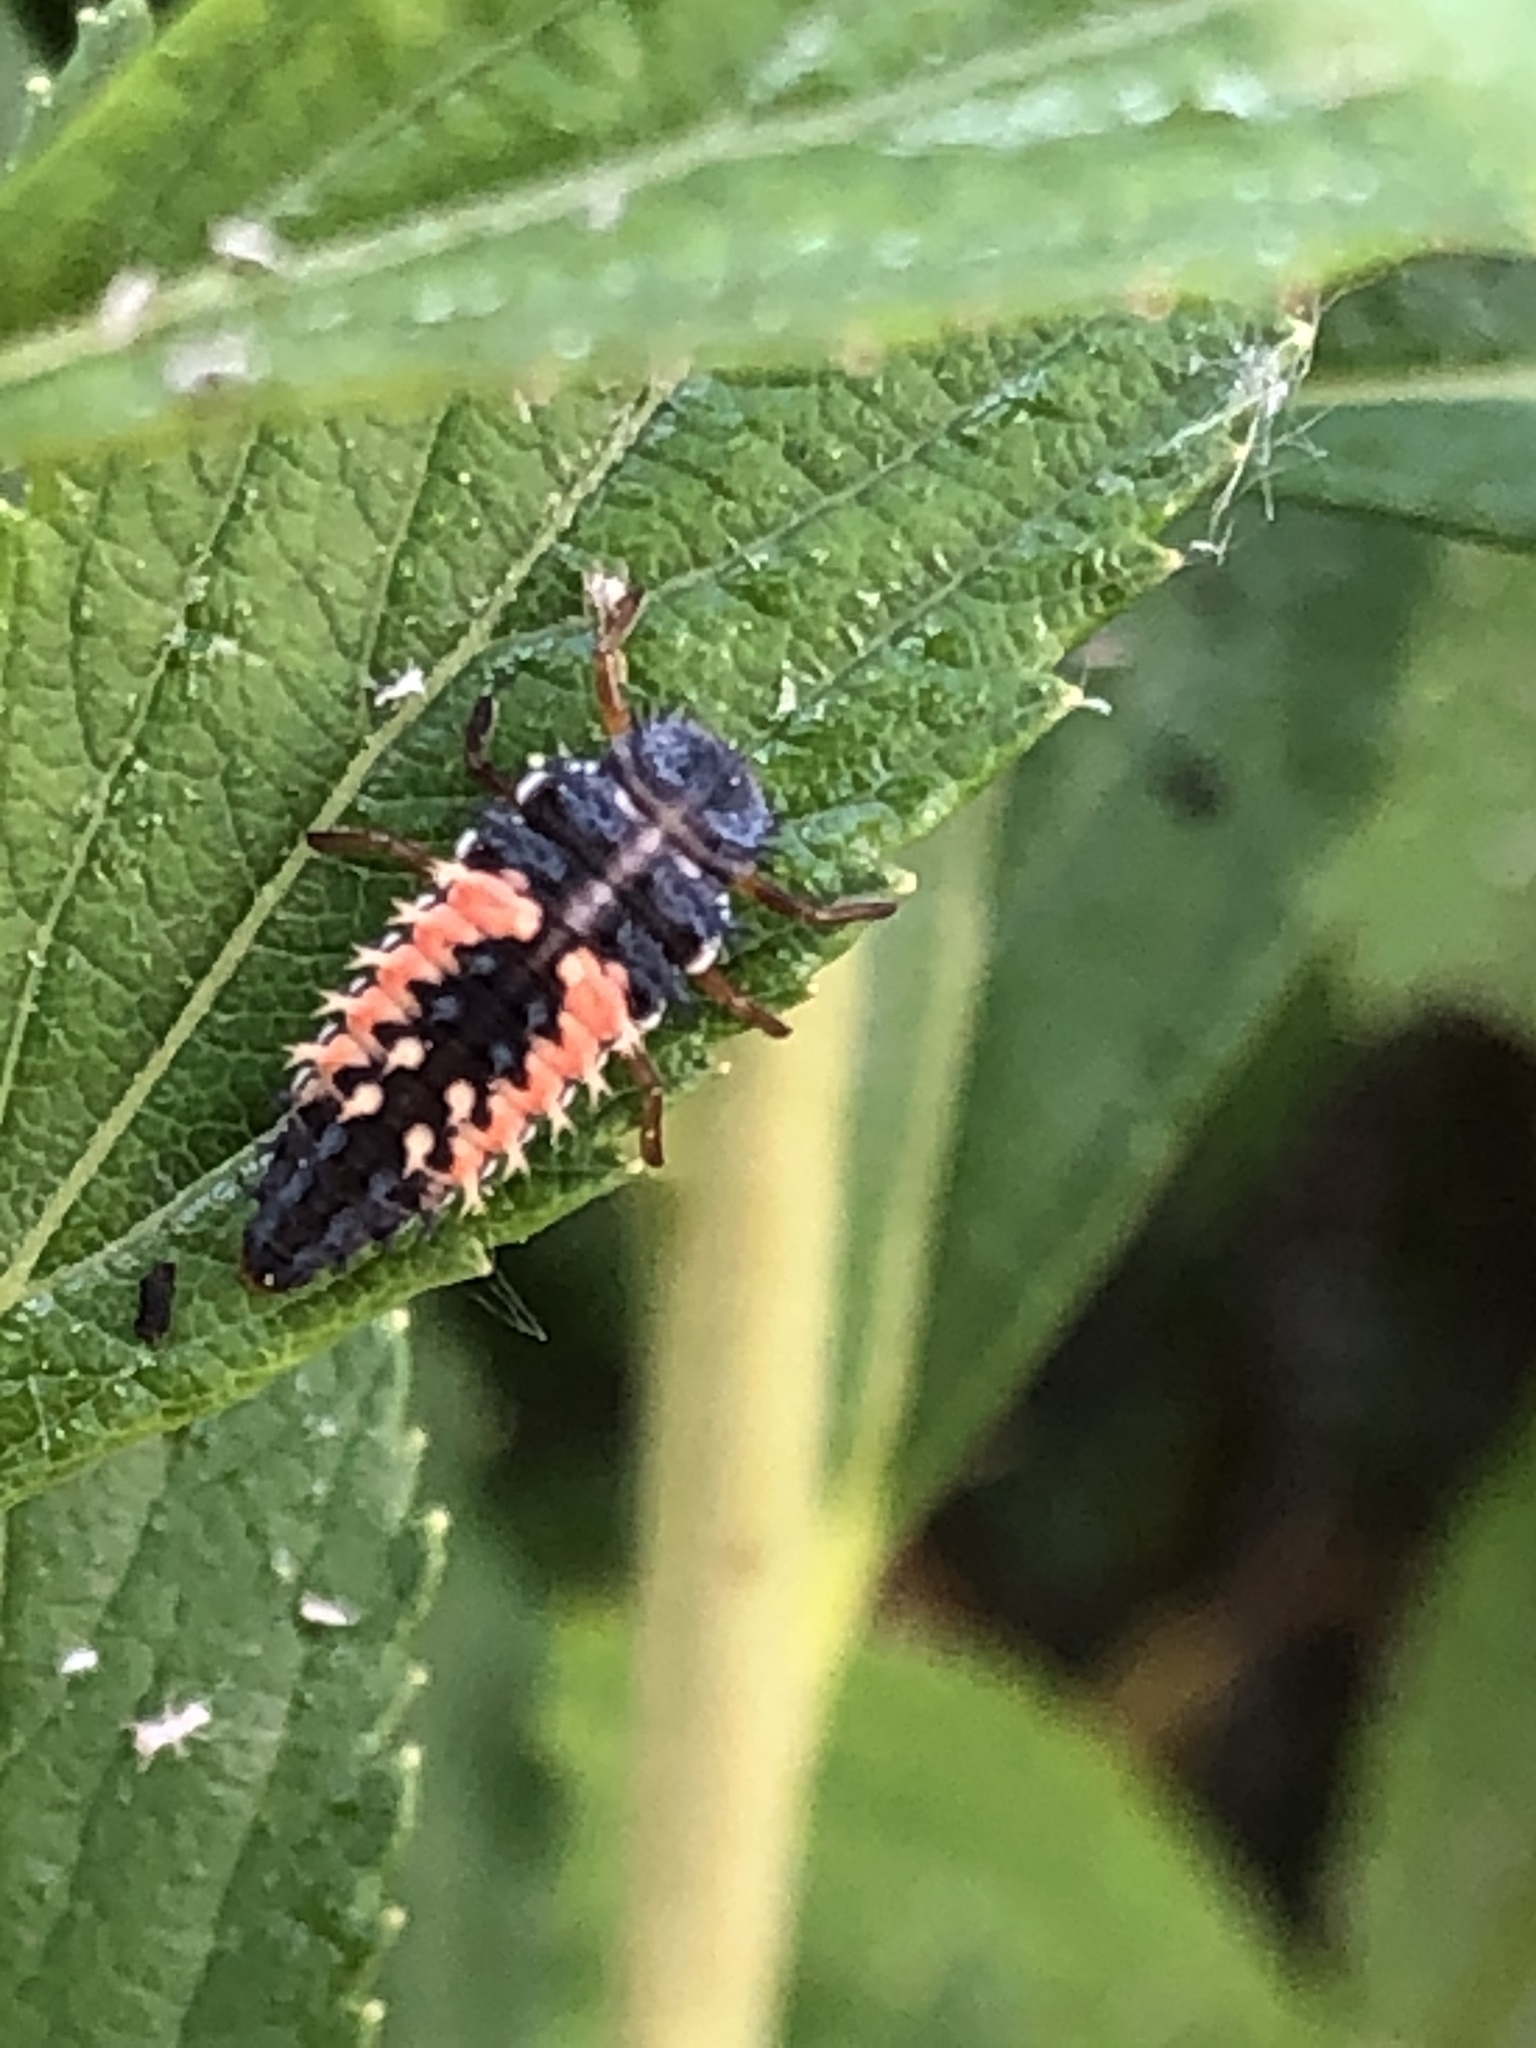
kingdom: Animalia
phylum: Arthropoda
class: Insecta
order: Coleoptera
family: Coccinellidae
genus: Harmonia
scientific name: Harmonia axyridis
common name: Harlequin ladybird
